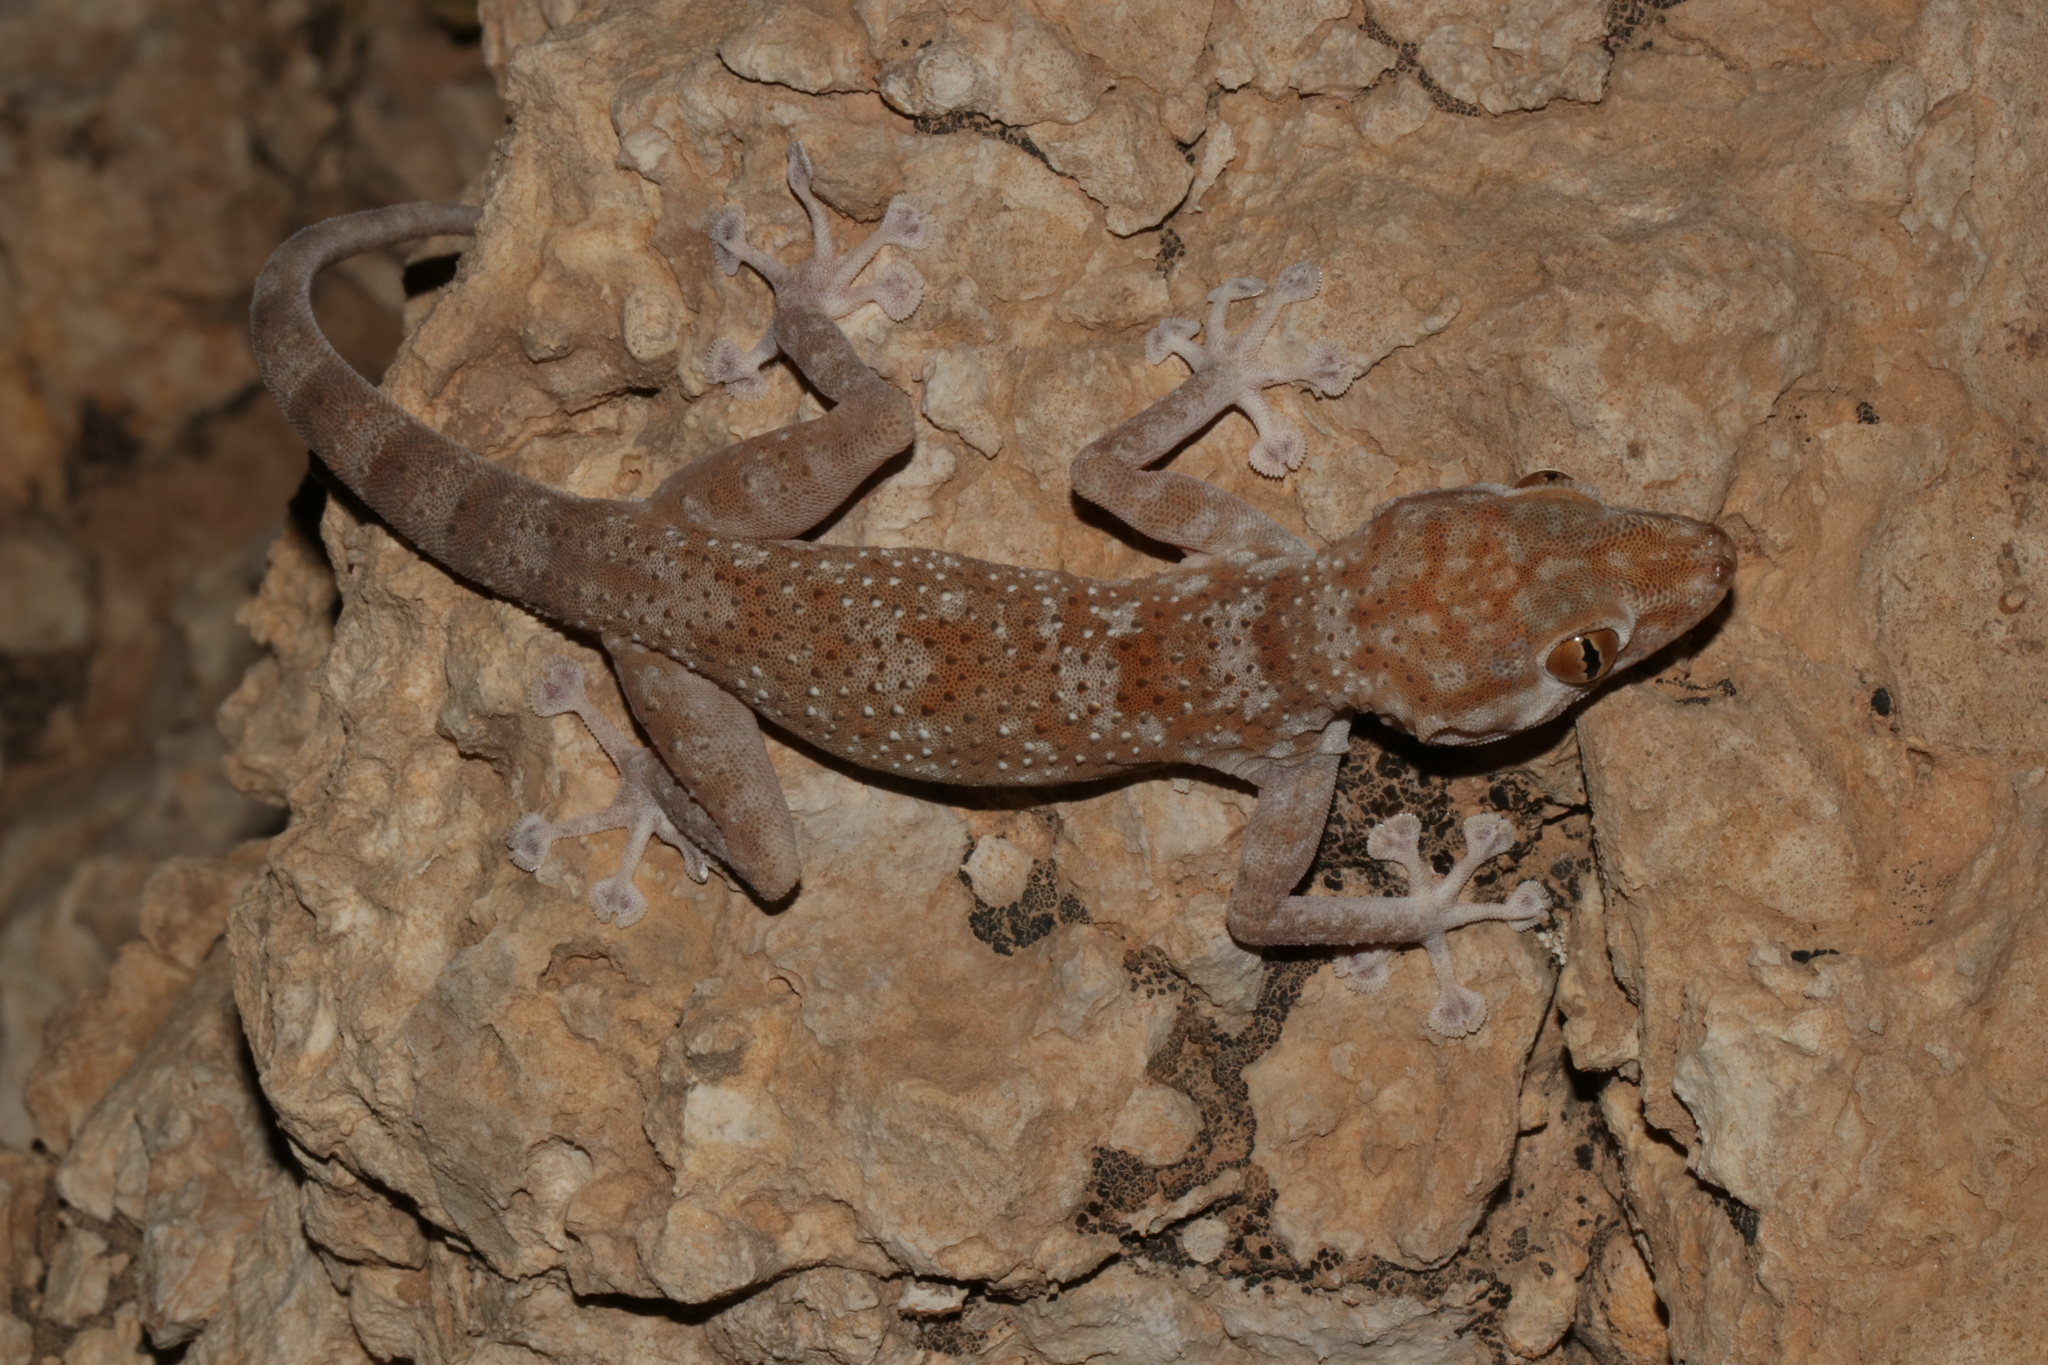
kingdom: Animalia
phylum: Chordata
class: Squamata
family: Phyllodactylidae
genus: Ptyodactylus
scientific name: Ptyodactylus hasselquistii
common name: Hasselquist’s fan-footed gecko
